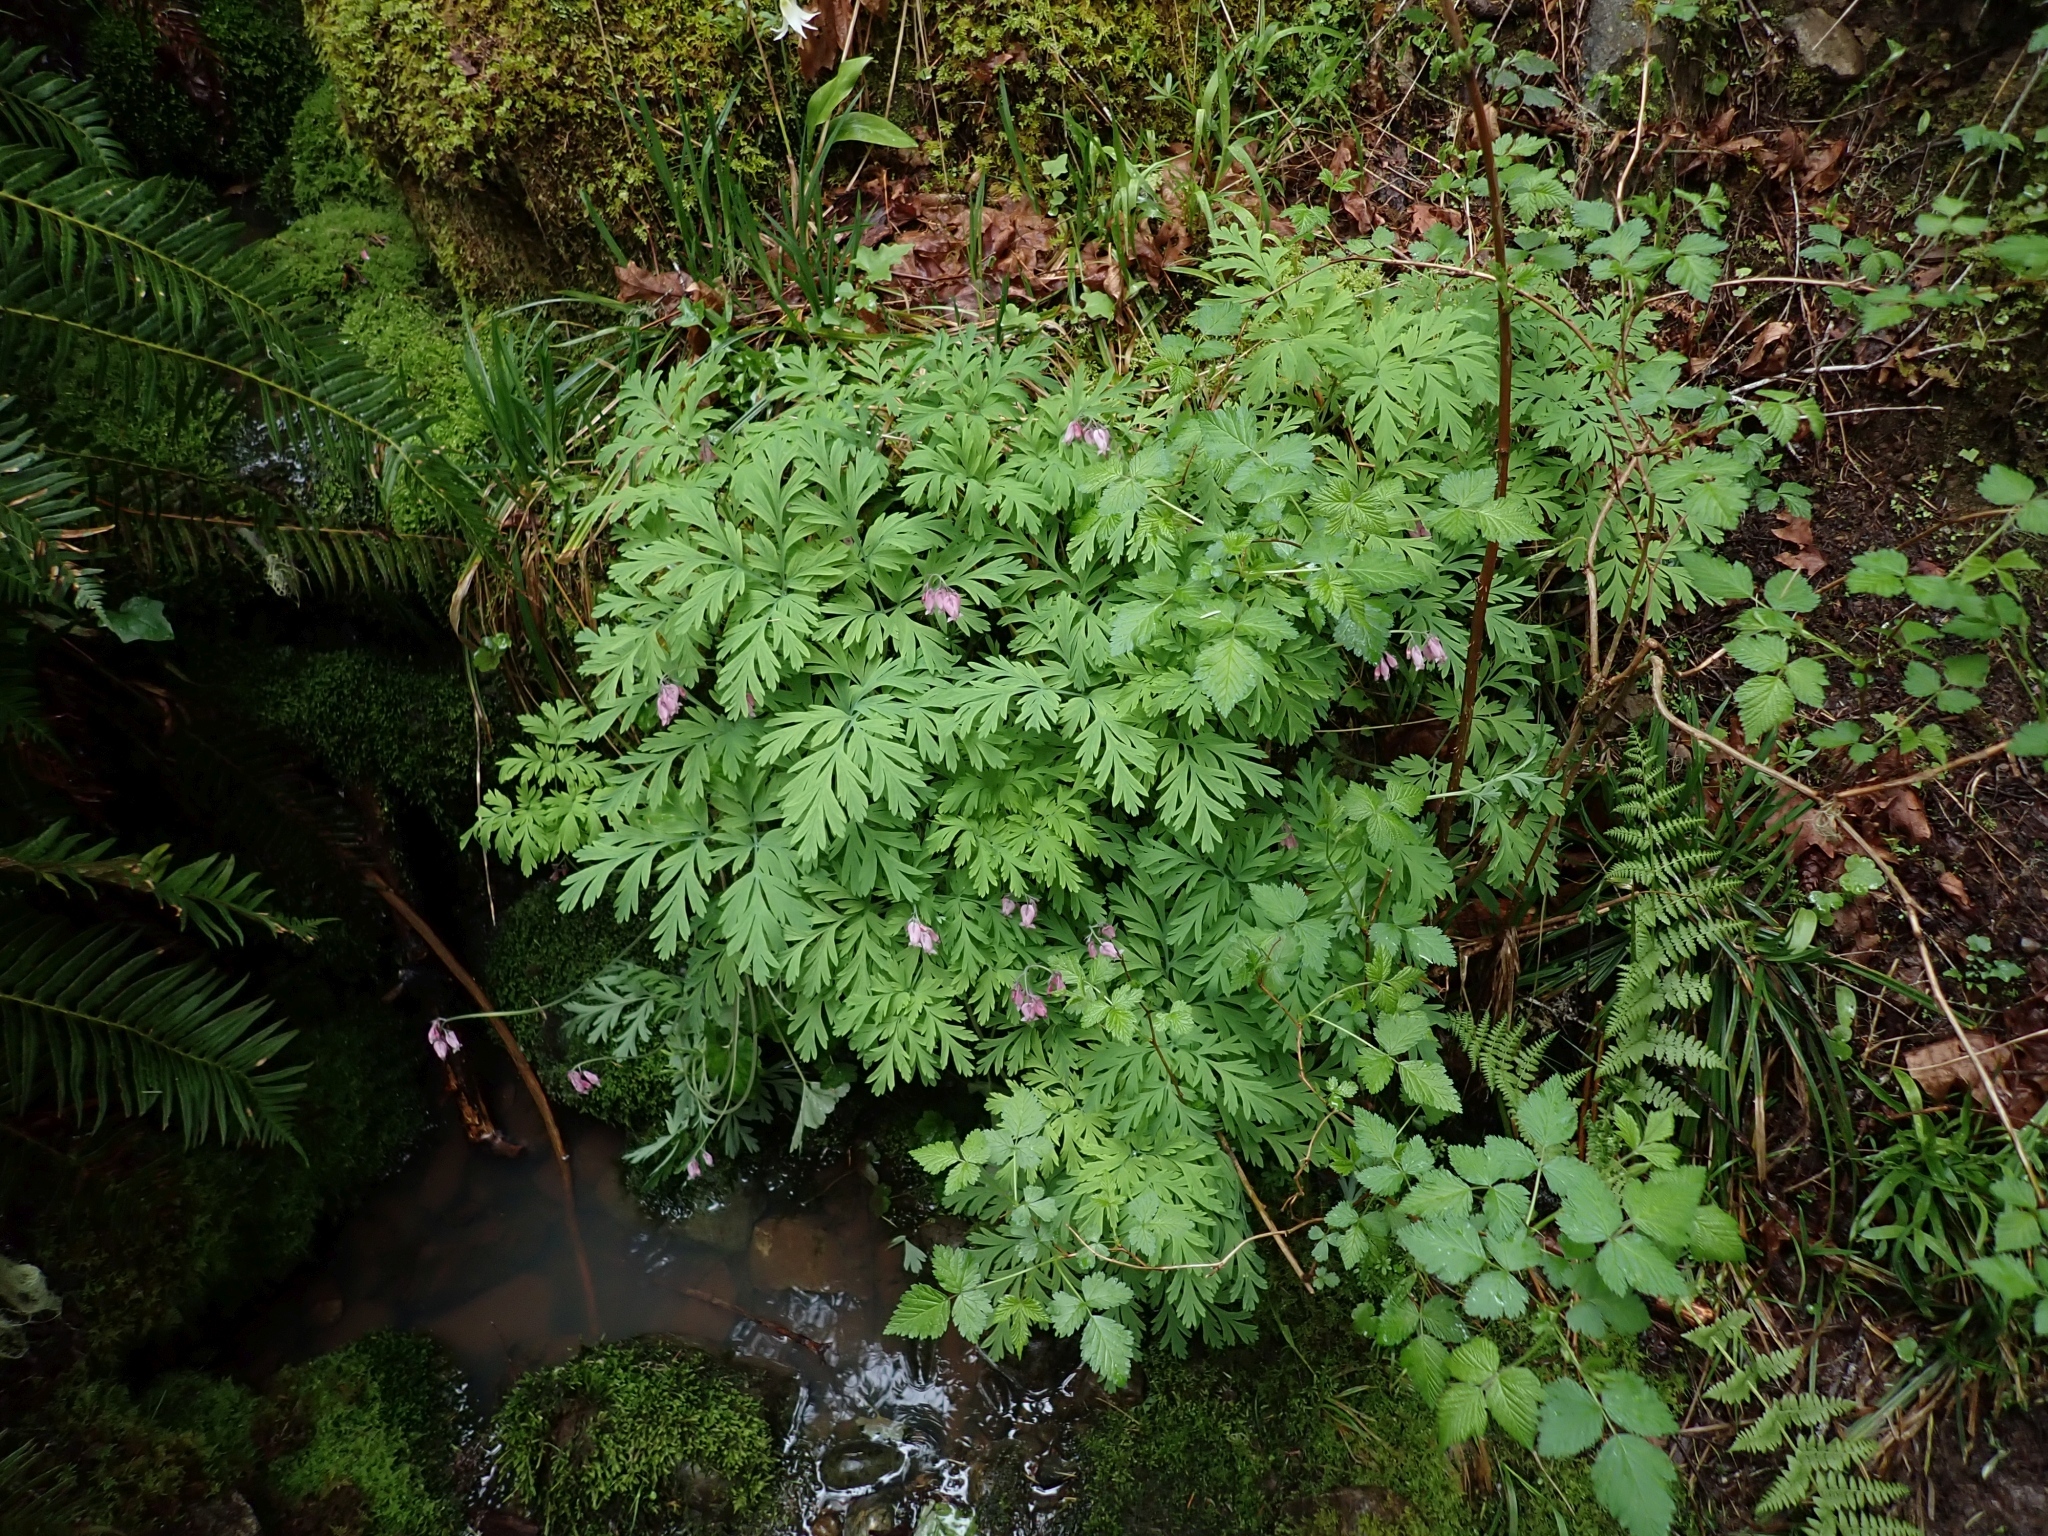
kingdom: Plantae
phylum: Tracheophyta
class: Magnoliopsida
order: Ranunculales
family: Papaveraceae
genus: Dicentra
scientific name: Dicentra formosa
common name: Bleeding-heart
